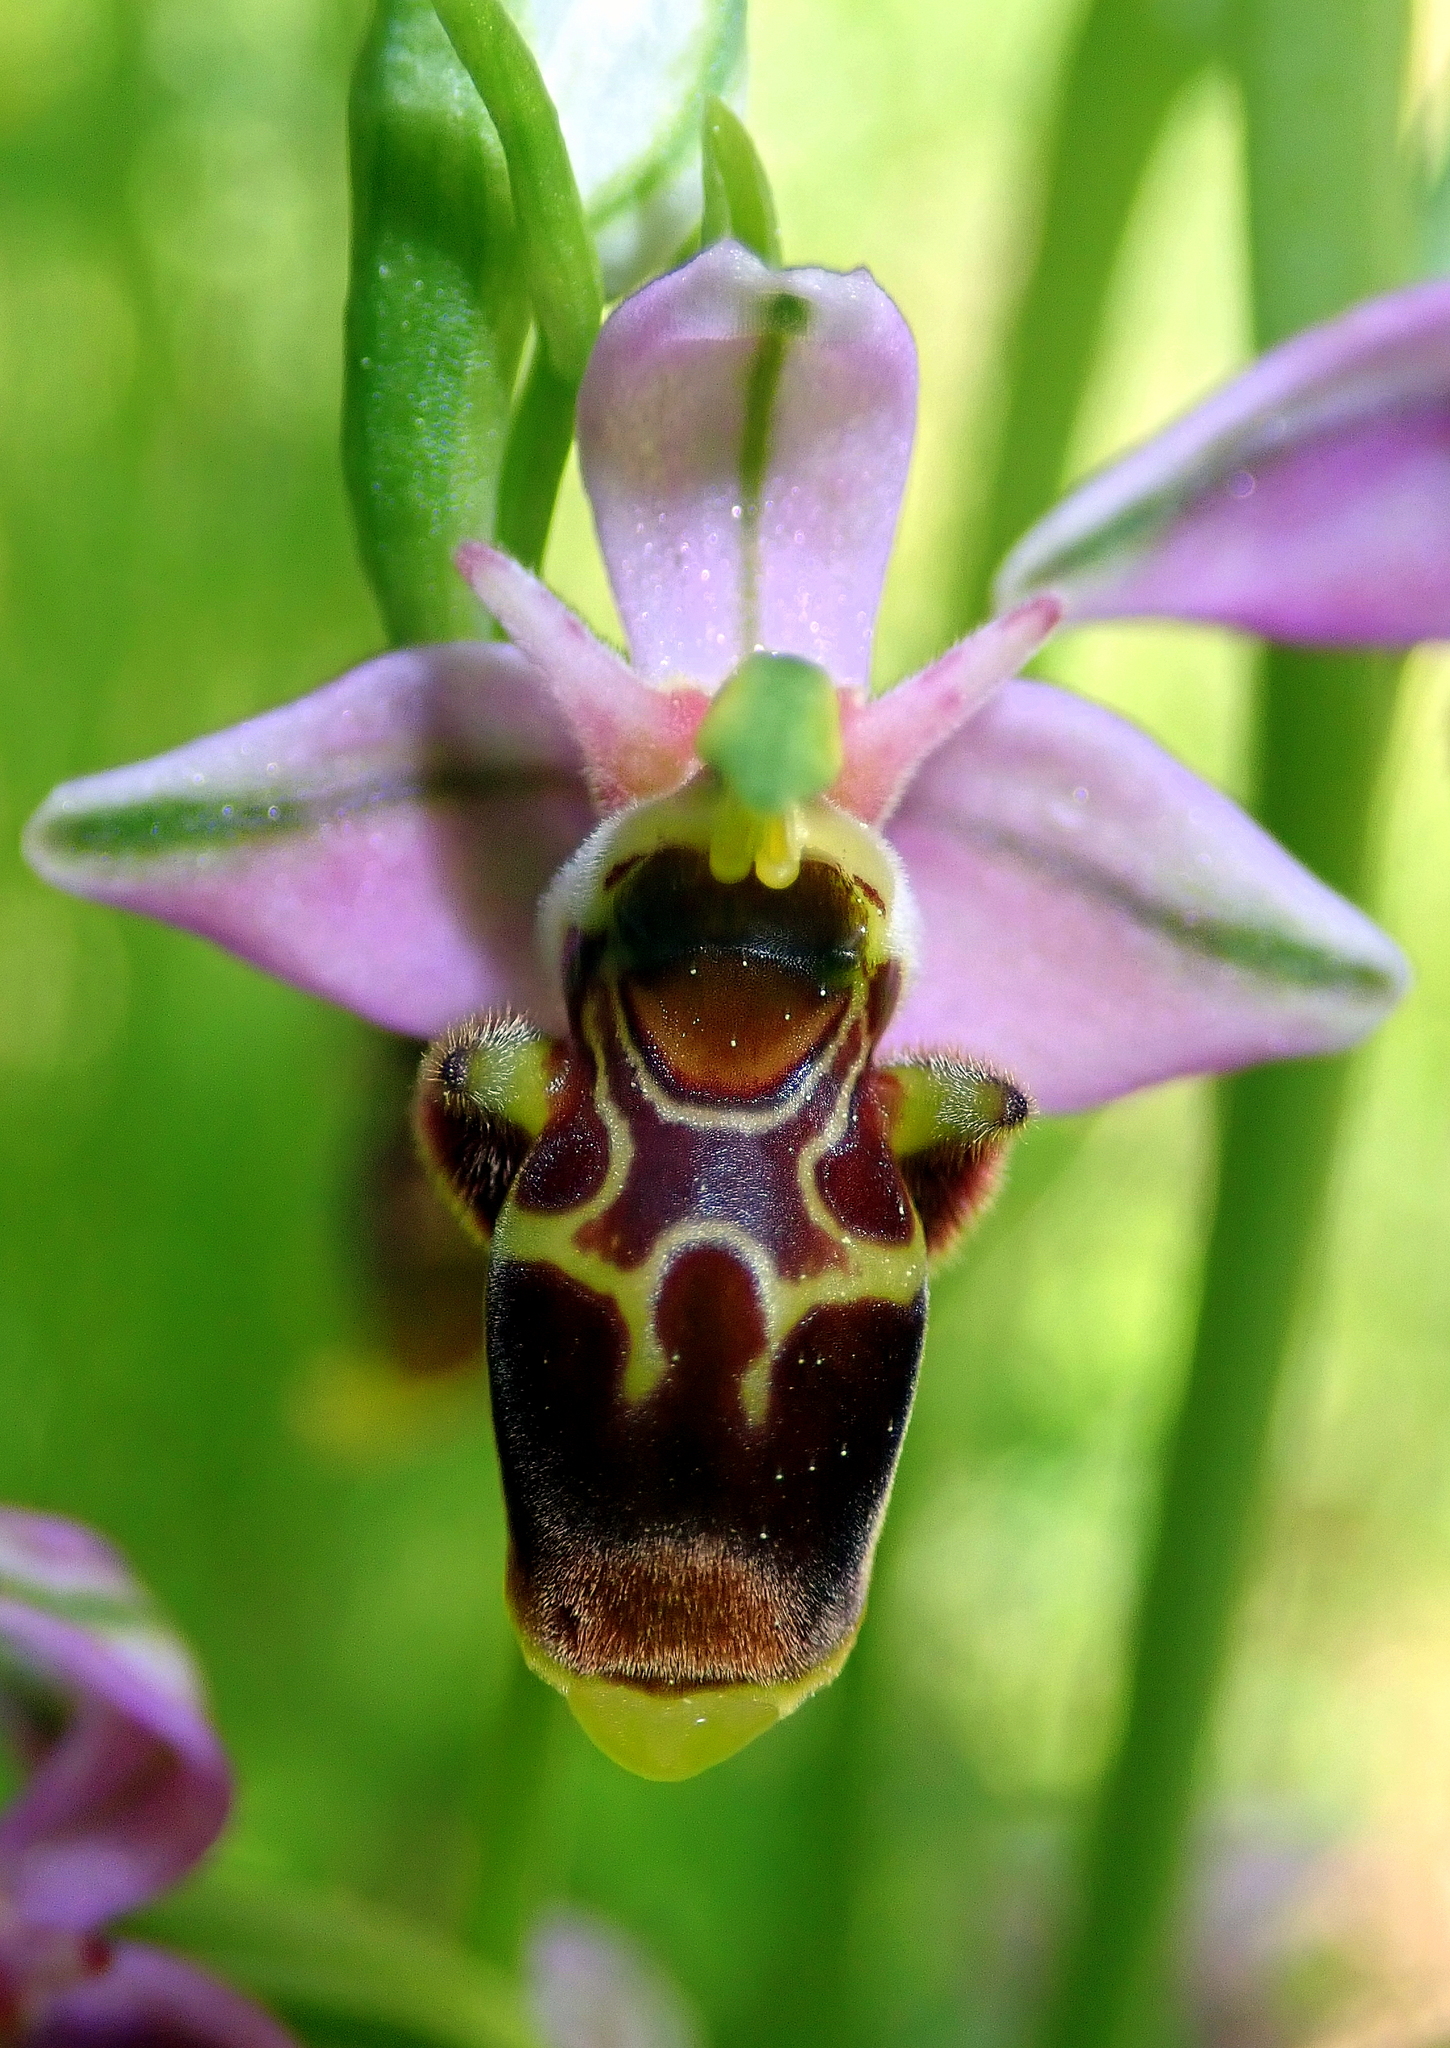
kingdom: Plantae
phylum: Tracheophyta
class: Liliopsida
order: Asparagales
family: Orchidaceae
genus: Ophrys
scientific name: Ophrys scolopax
